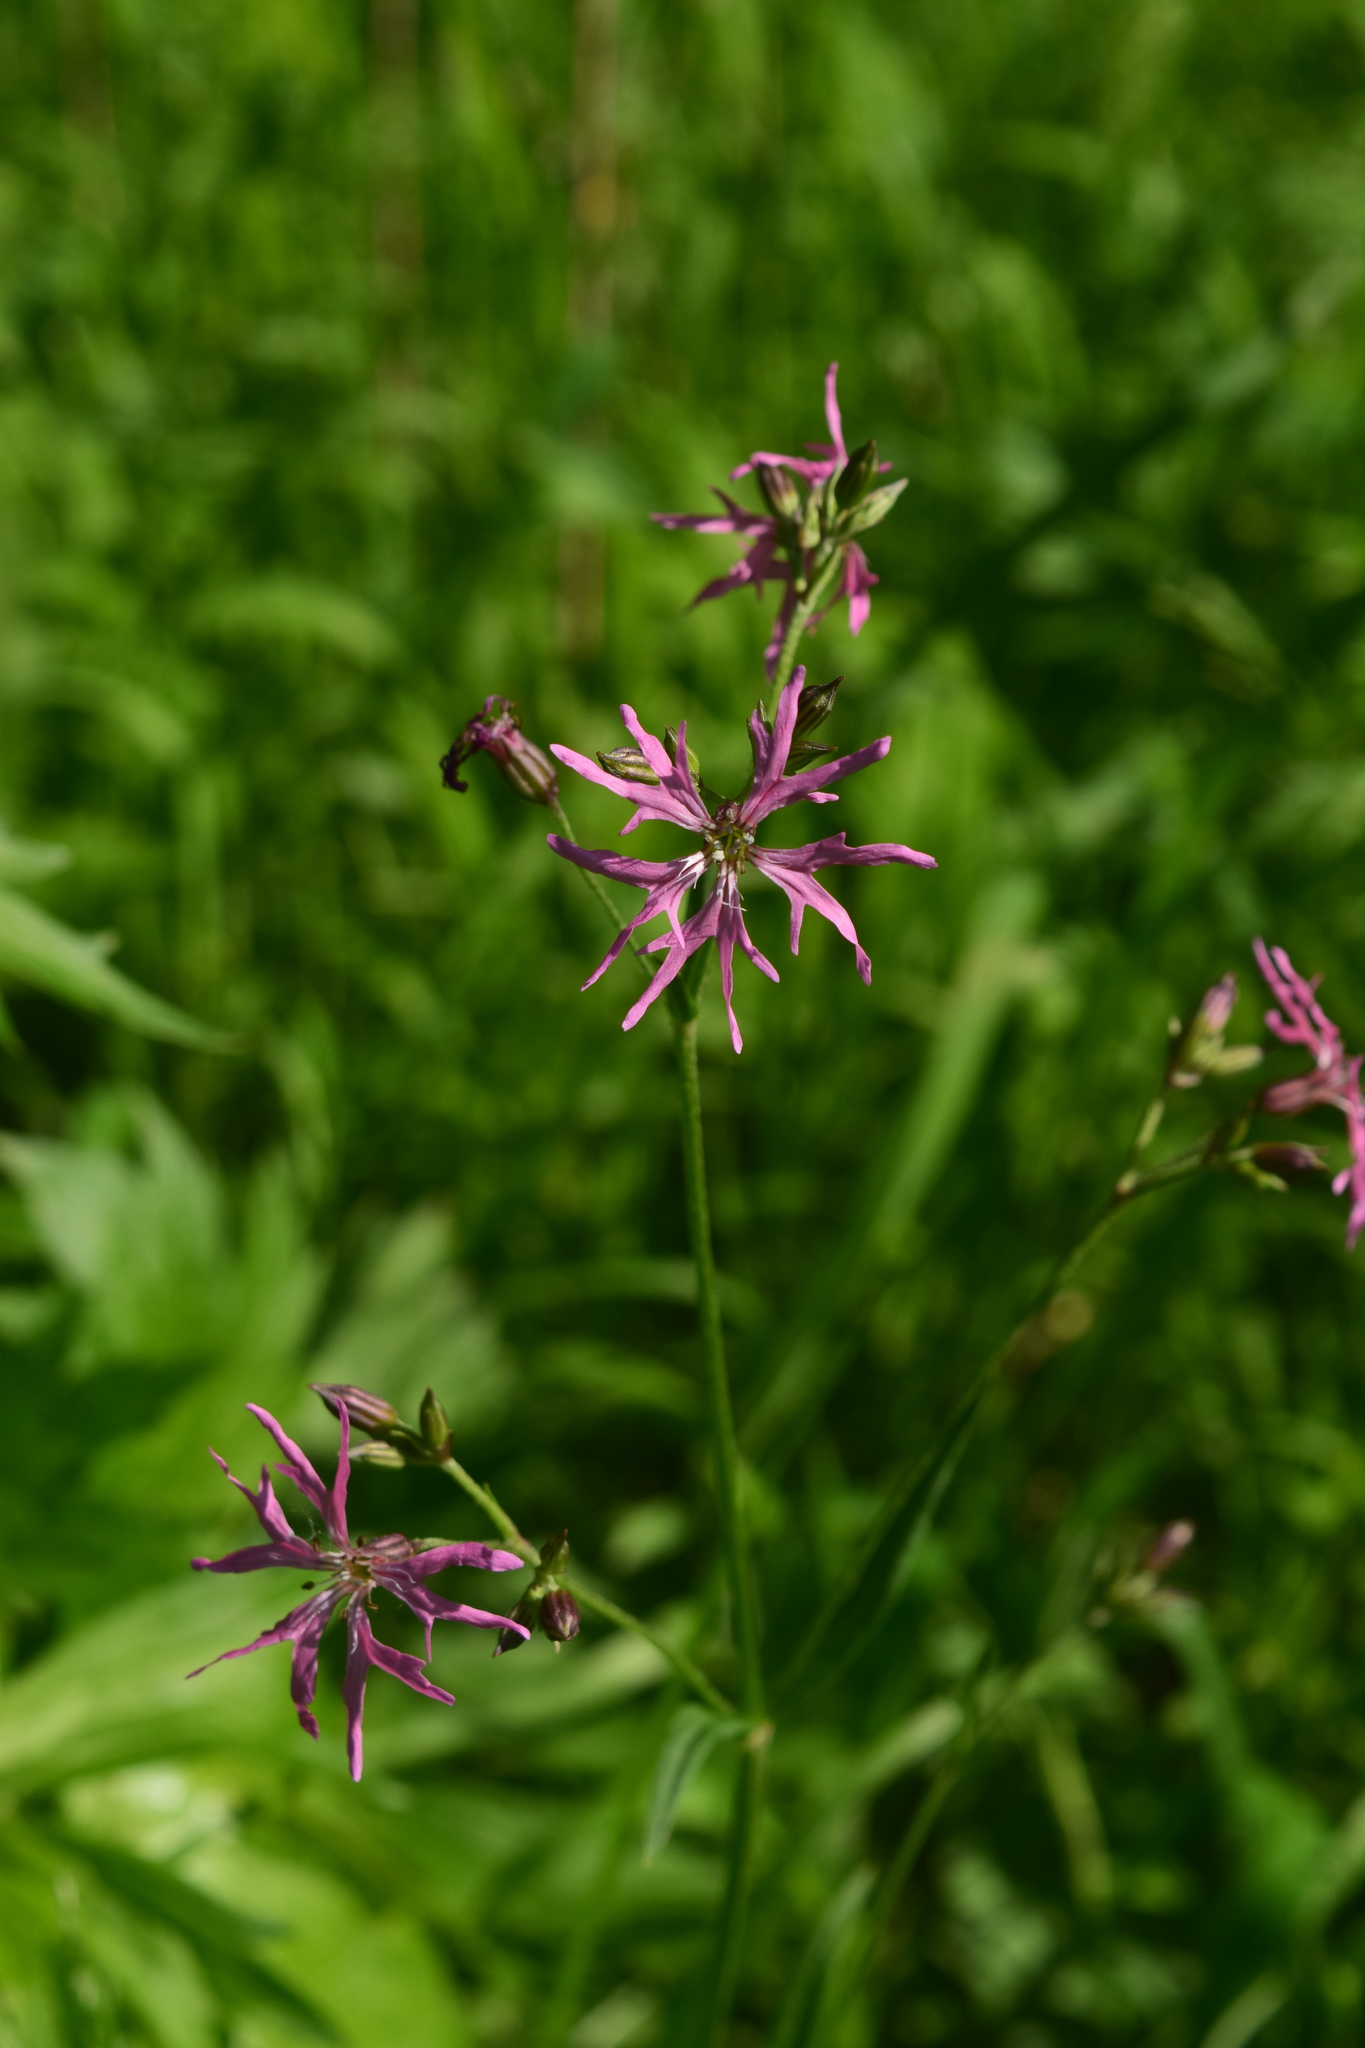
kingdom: Plantae
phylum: Tracheophyta
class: Magnoliopsida
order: Caryophyllales
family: Caryophyllaceae
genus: Silene
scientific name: Silene flos-cuculi
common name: Ragged-robin
